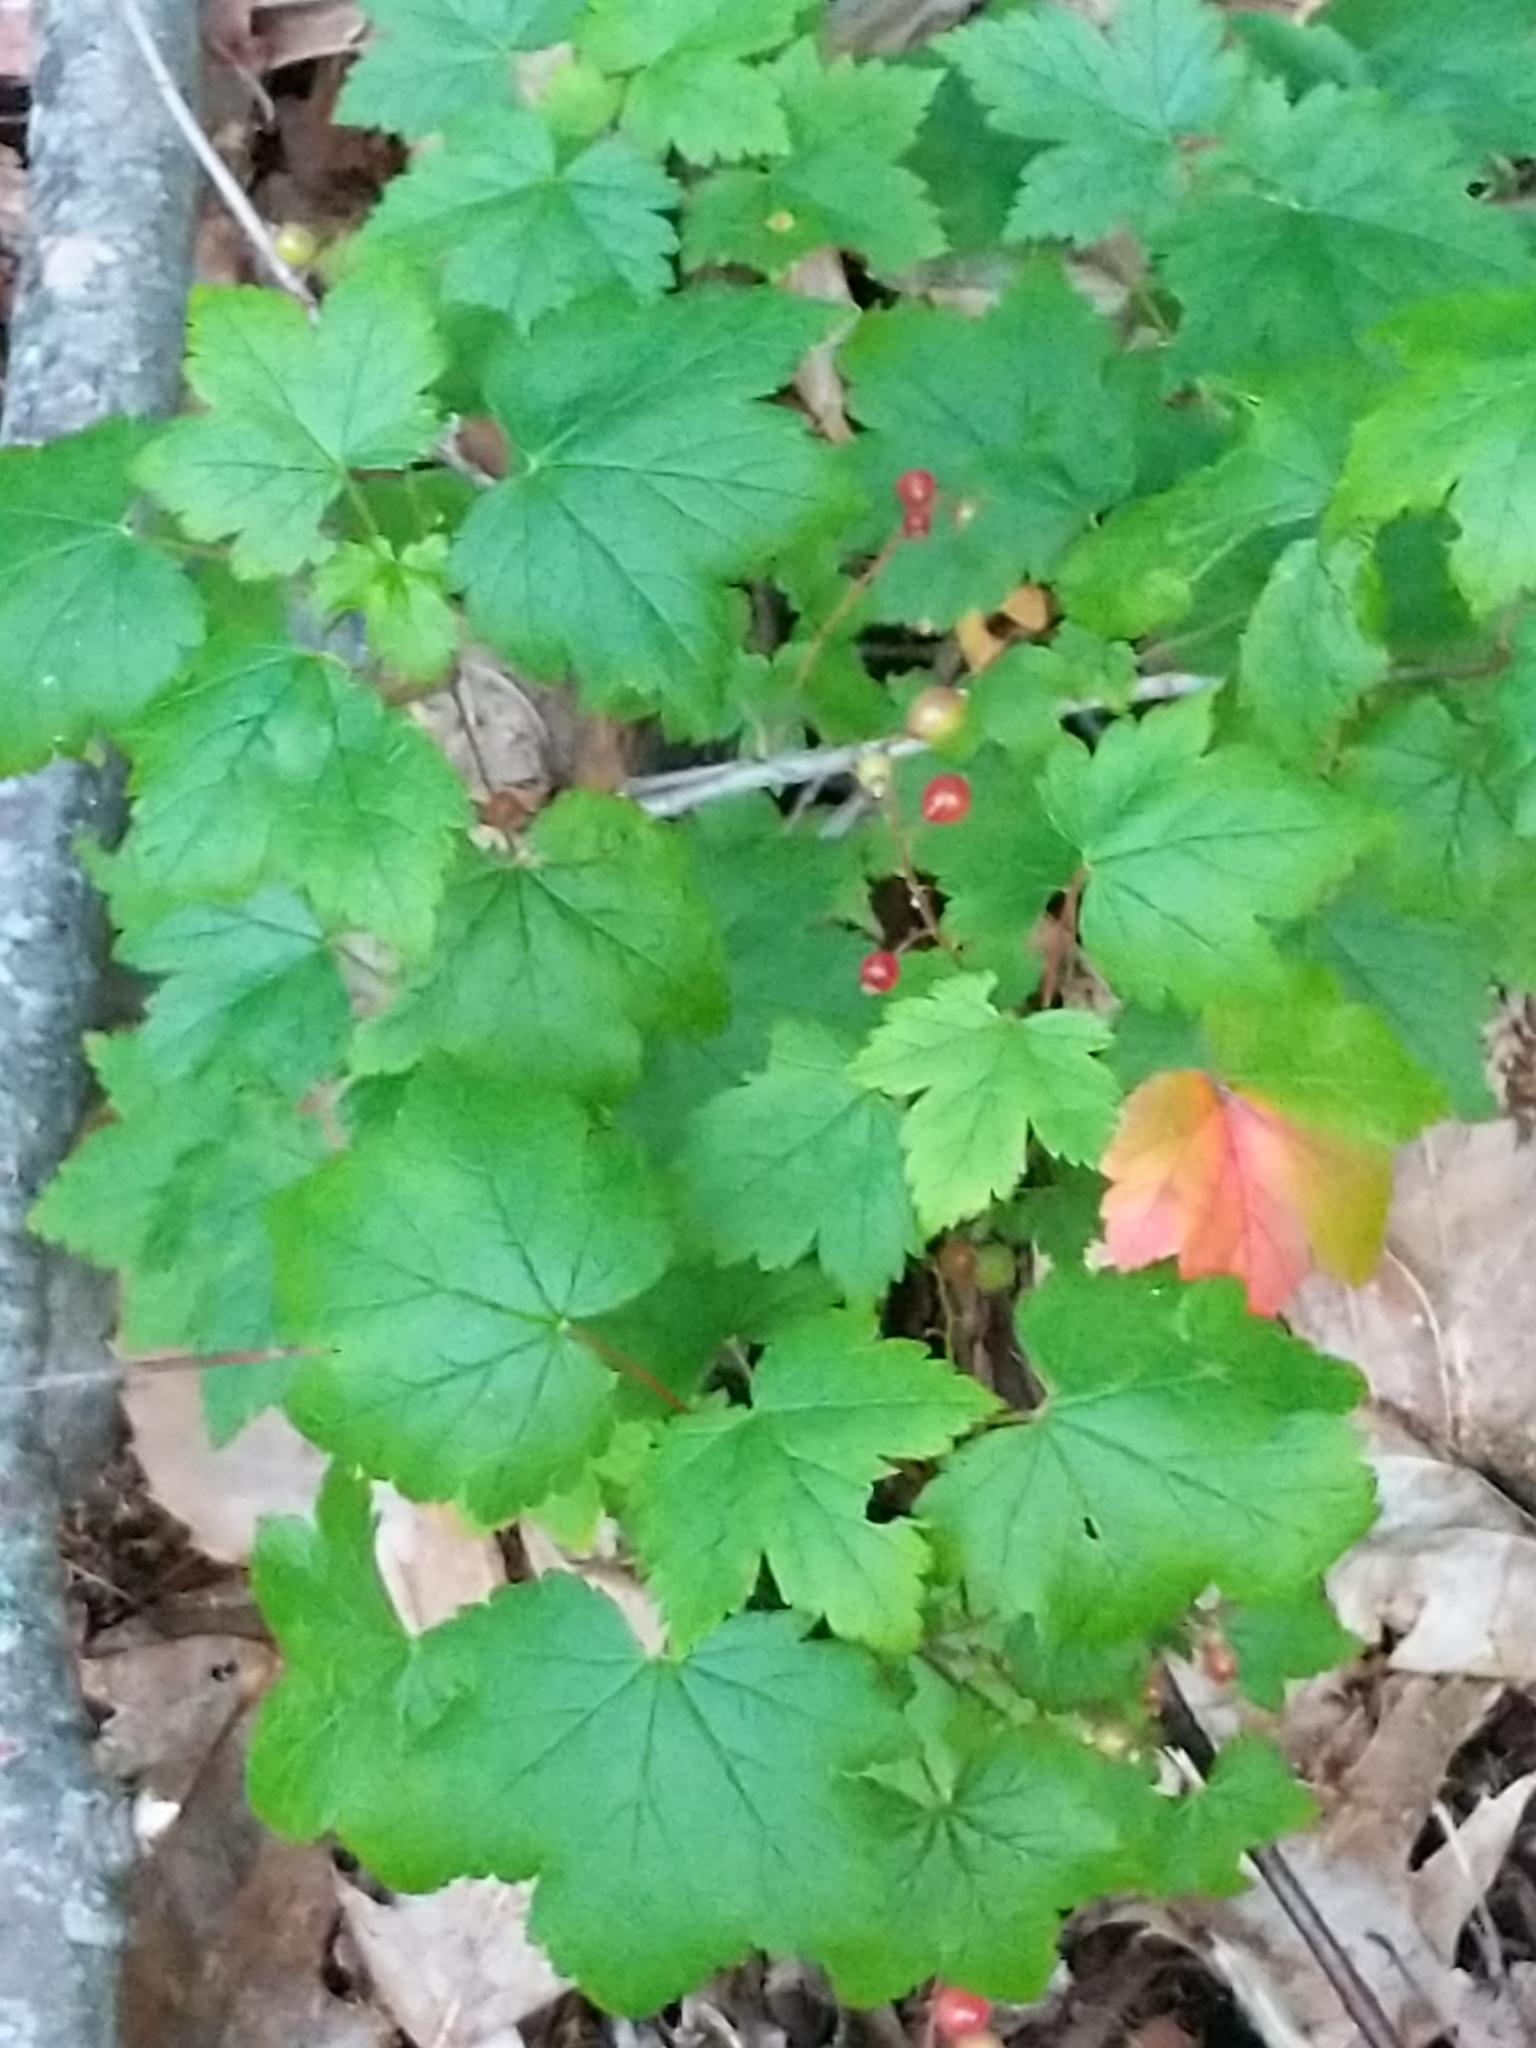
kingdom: Plantae
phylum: Tracheophyta
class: Magnoliopsida
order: Saxifragales
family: Grossulariaceae
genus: Ribes
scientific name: Ribes glandulosum
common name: Skunk currant
